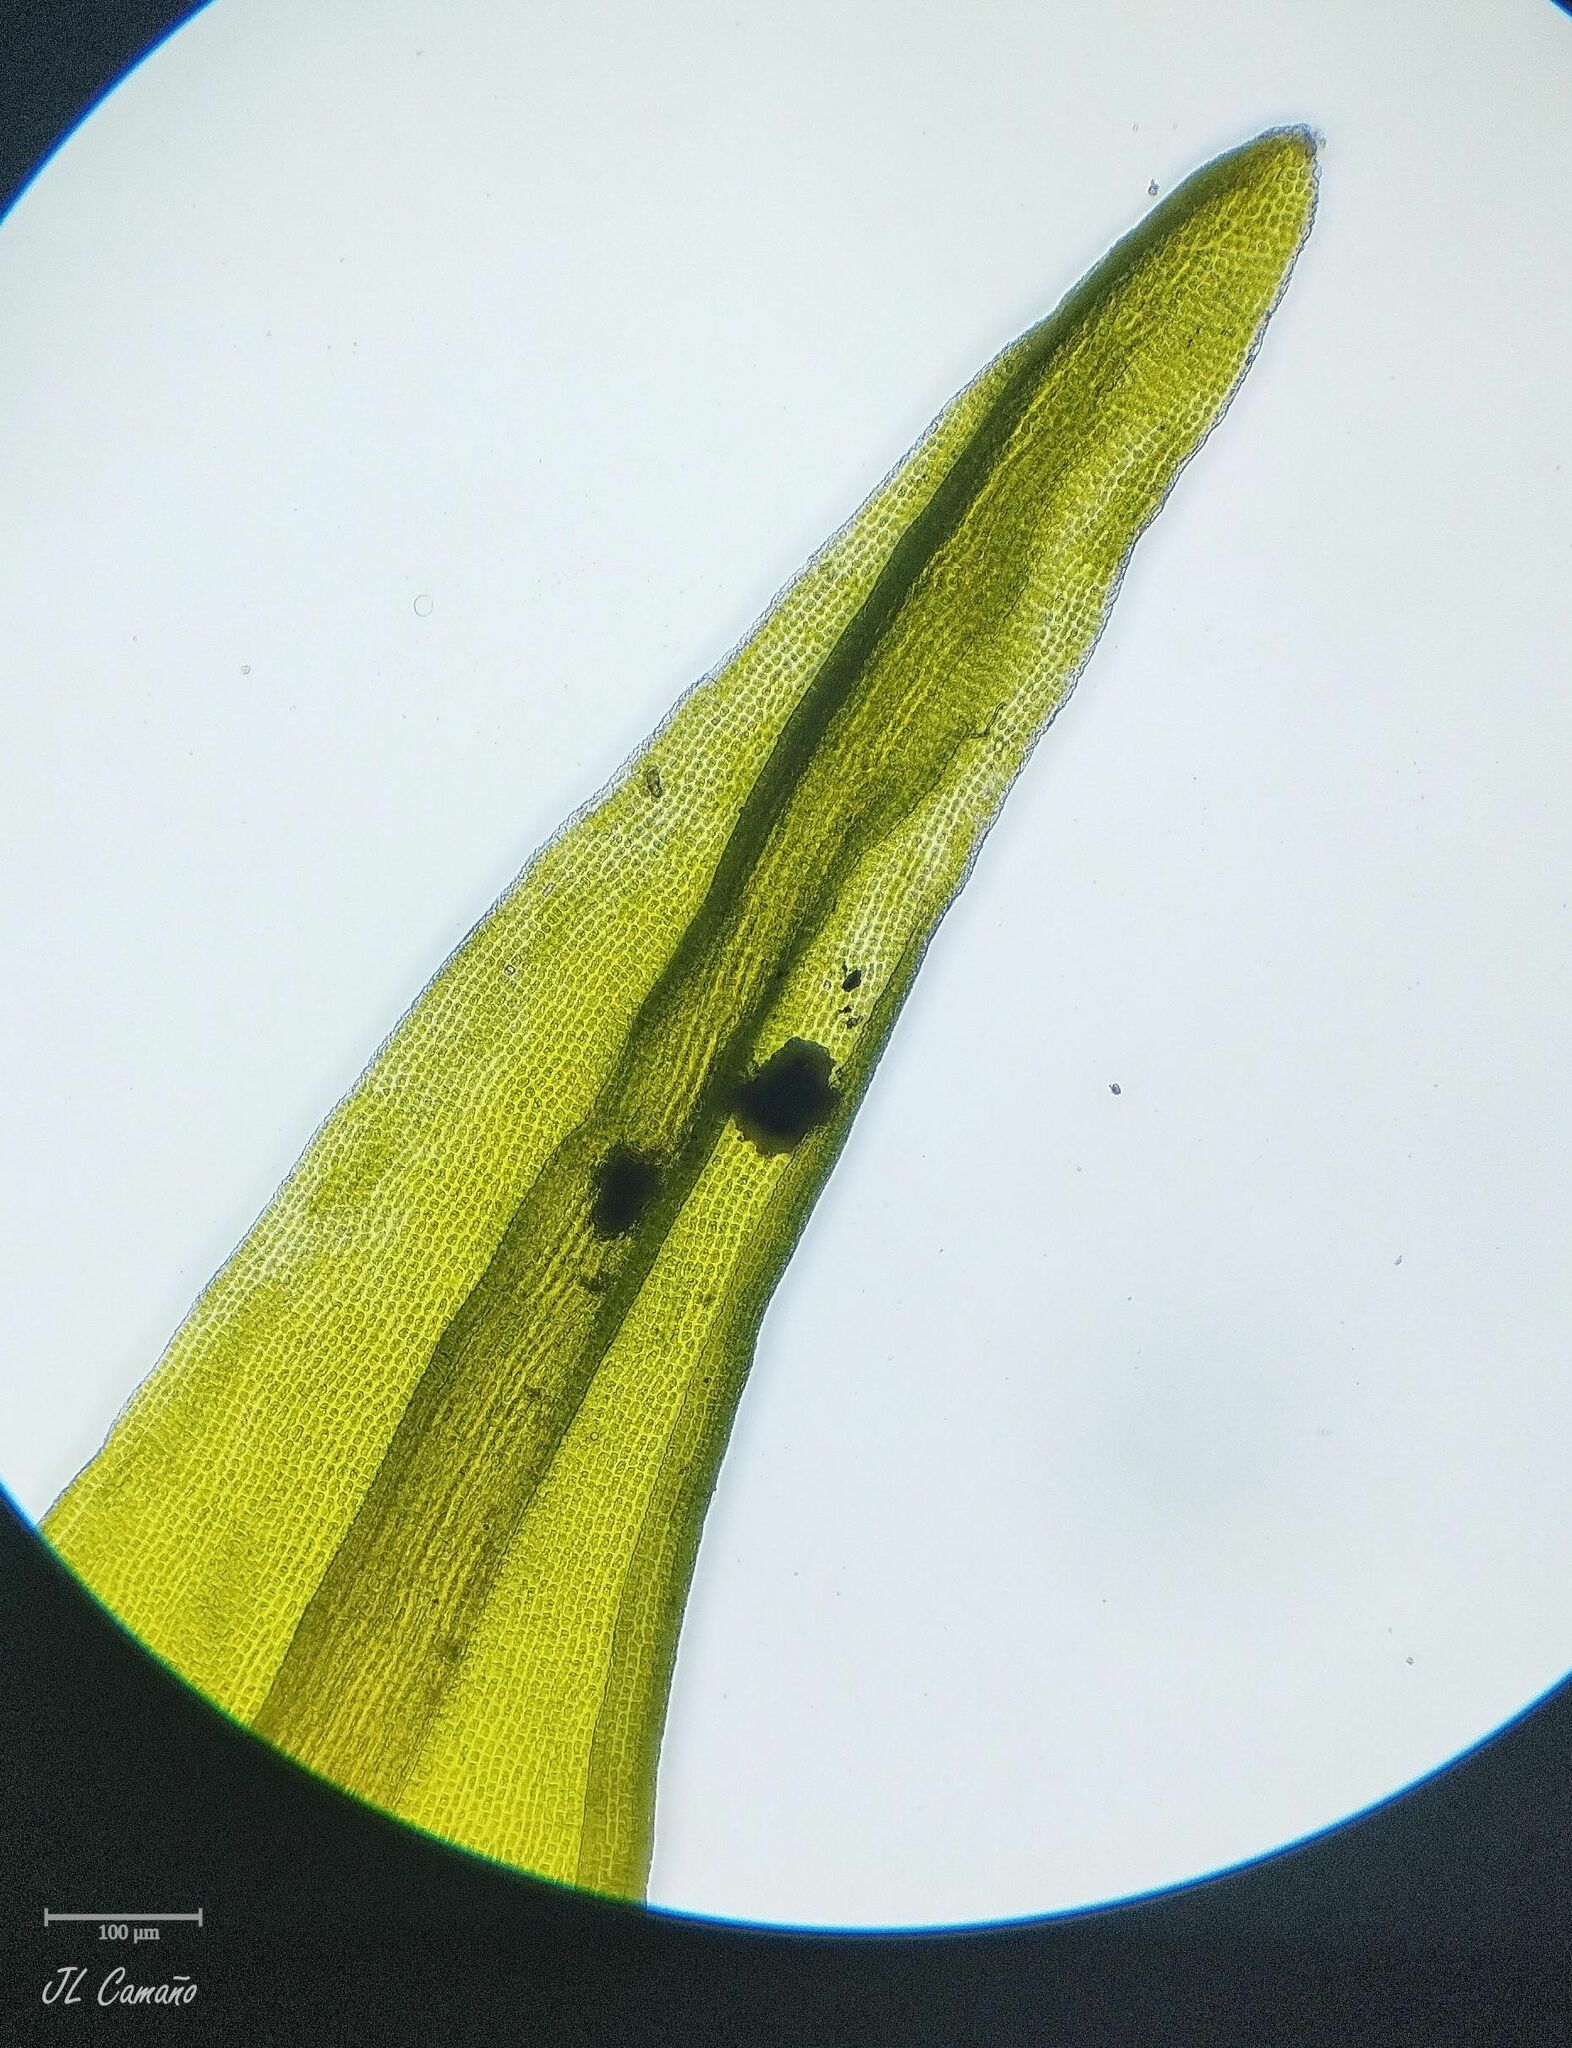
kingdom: Plantae
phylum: Bryophyta
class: Bryopsida
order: Grimmiales
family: Grimmiaceae
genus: Codriophorus
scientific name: Codriophorus aquaticus
